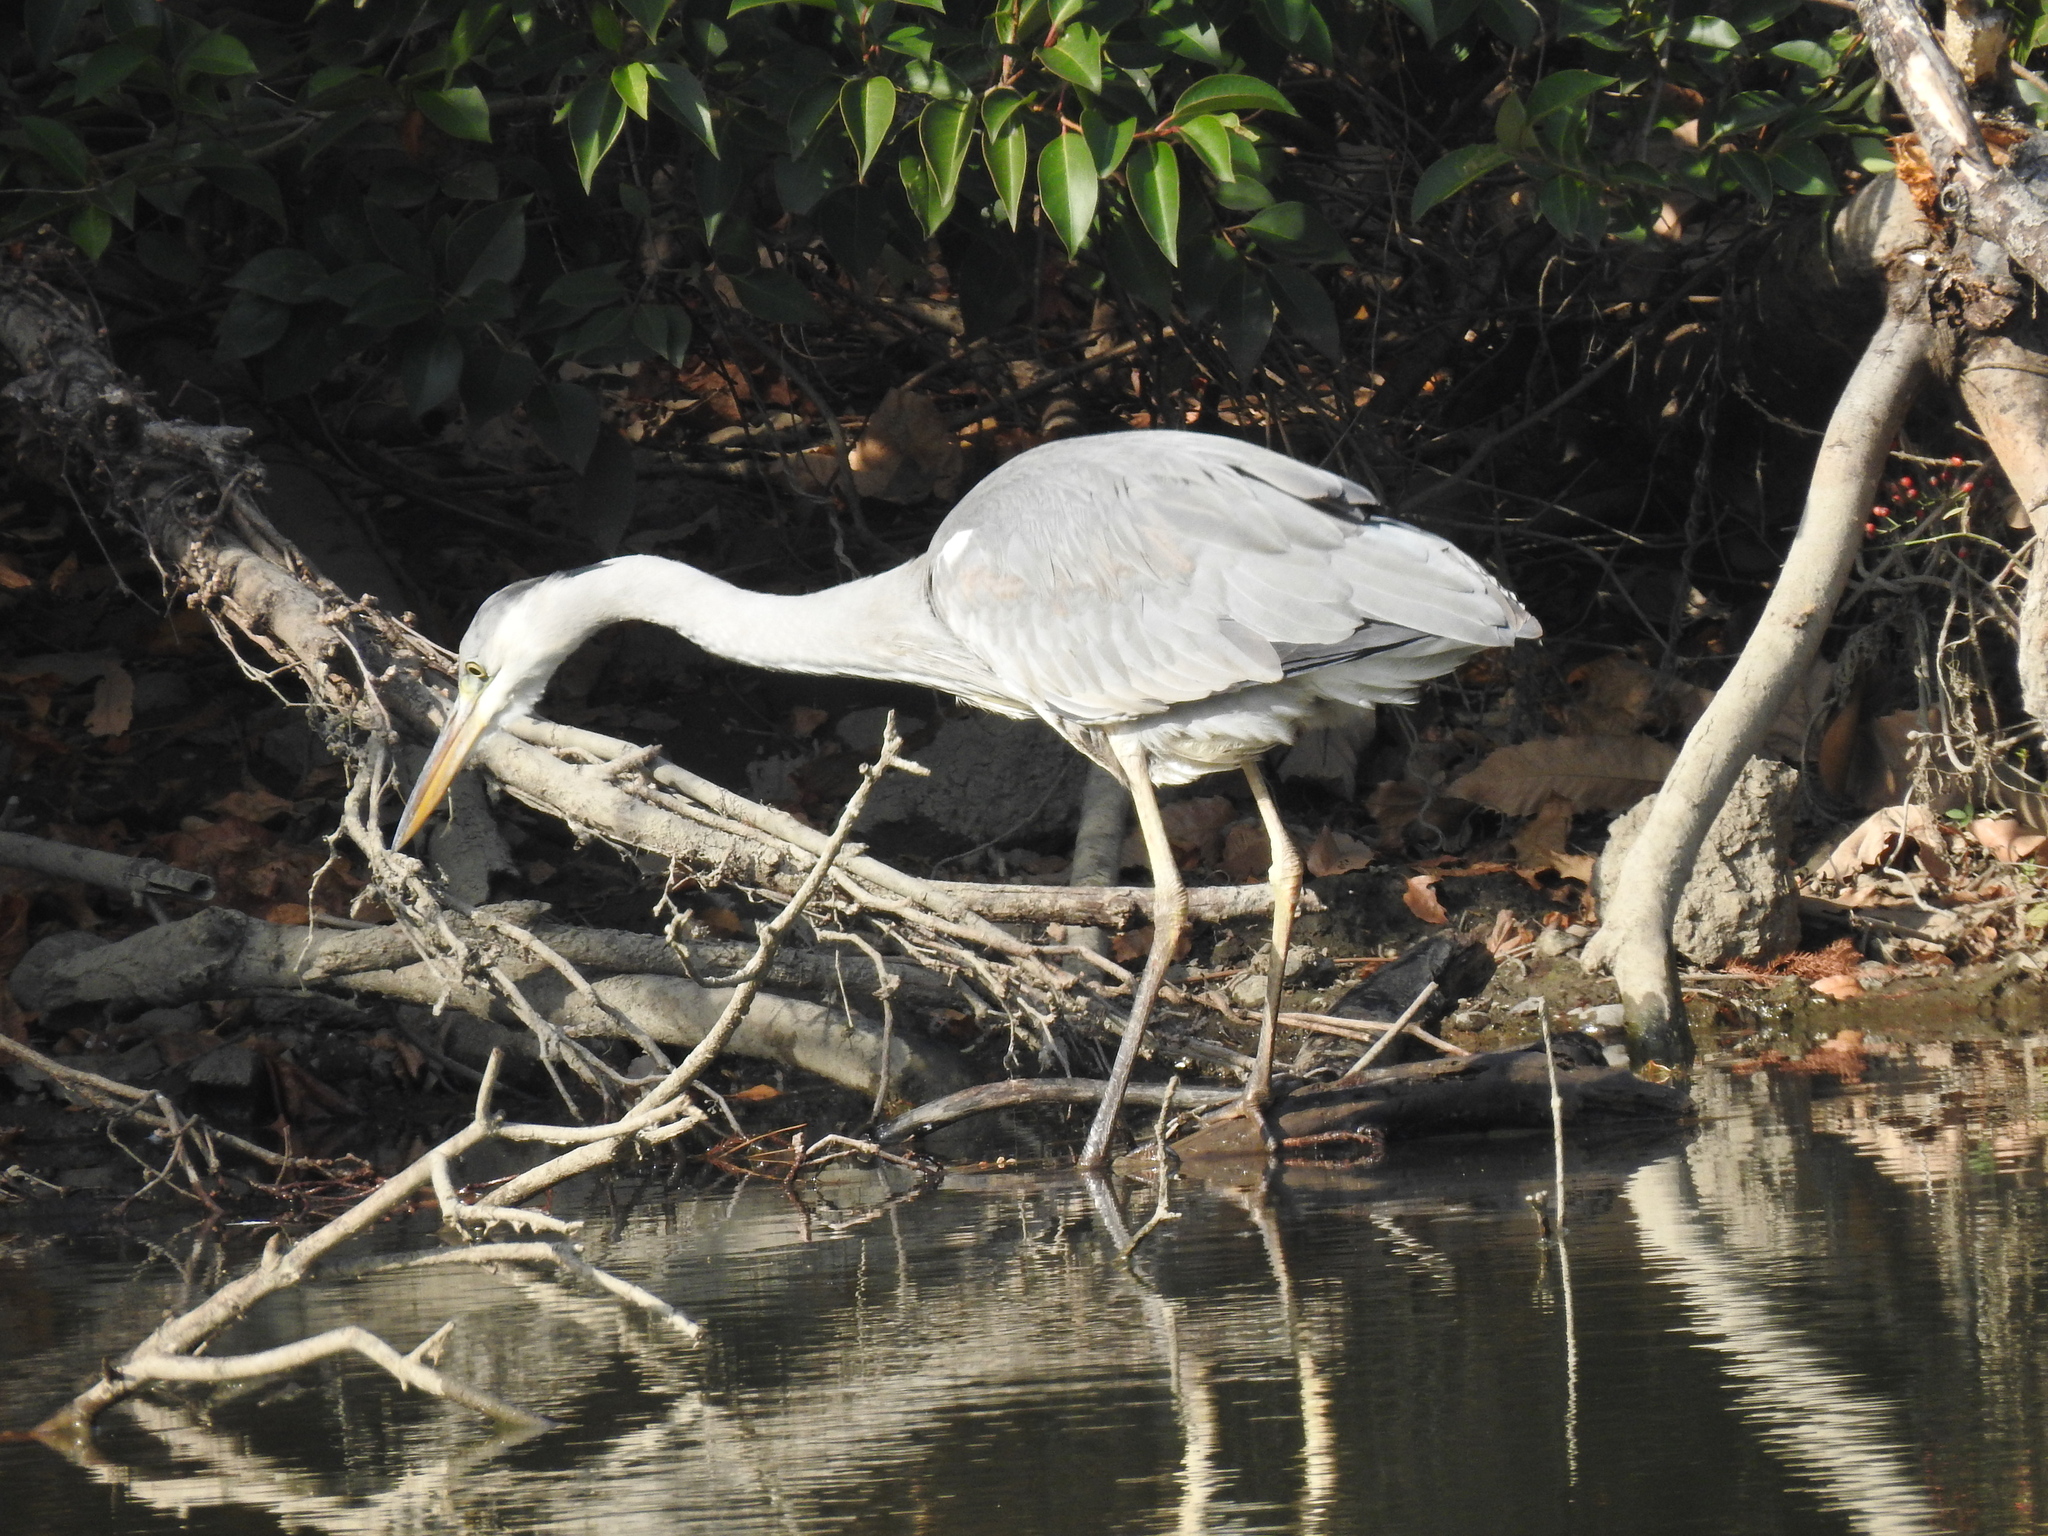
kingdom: Animalia
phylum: Chordata
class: Aves
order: Pelecaniformes
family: Ardeidae
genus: Ardea
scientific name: Ardea cinerea
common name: Grey heron
